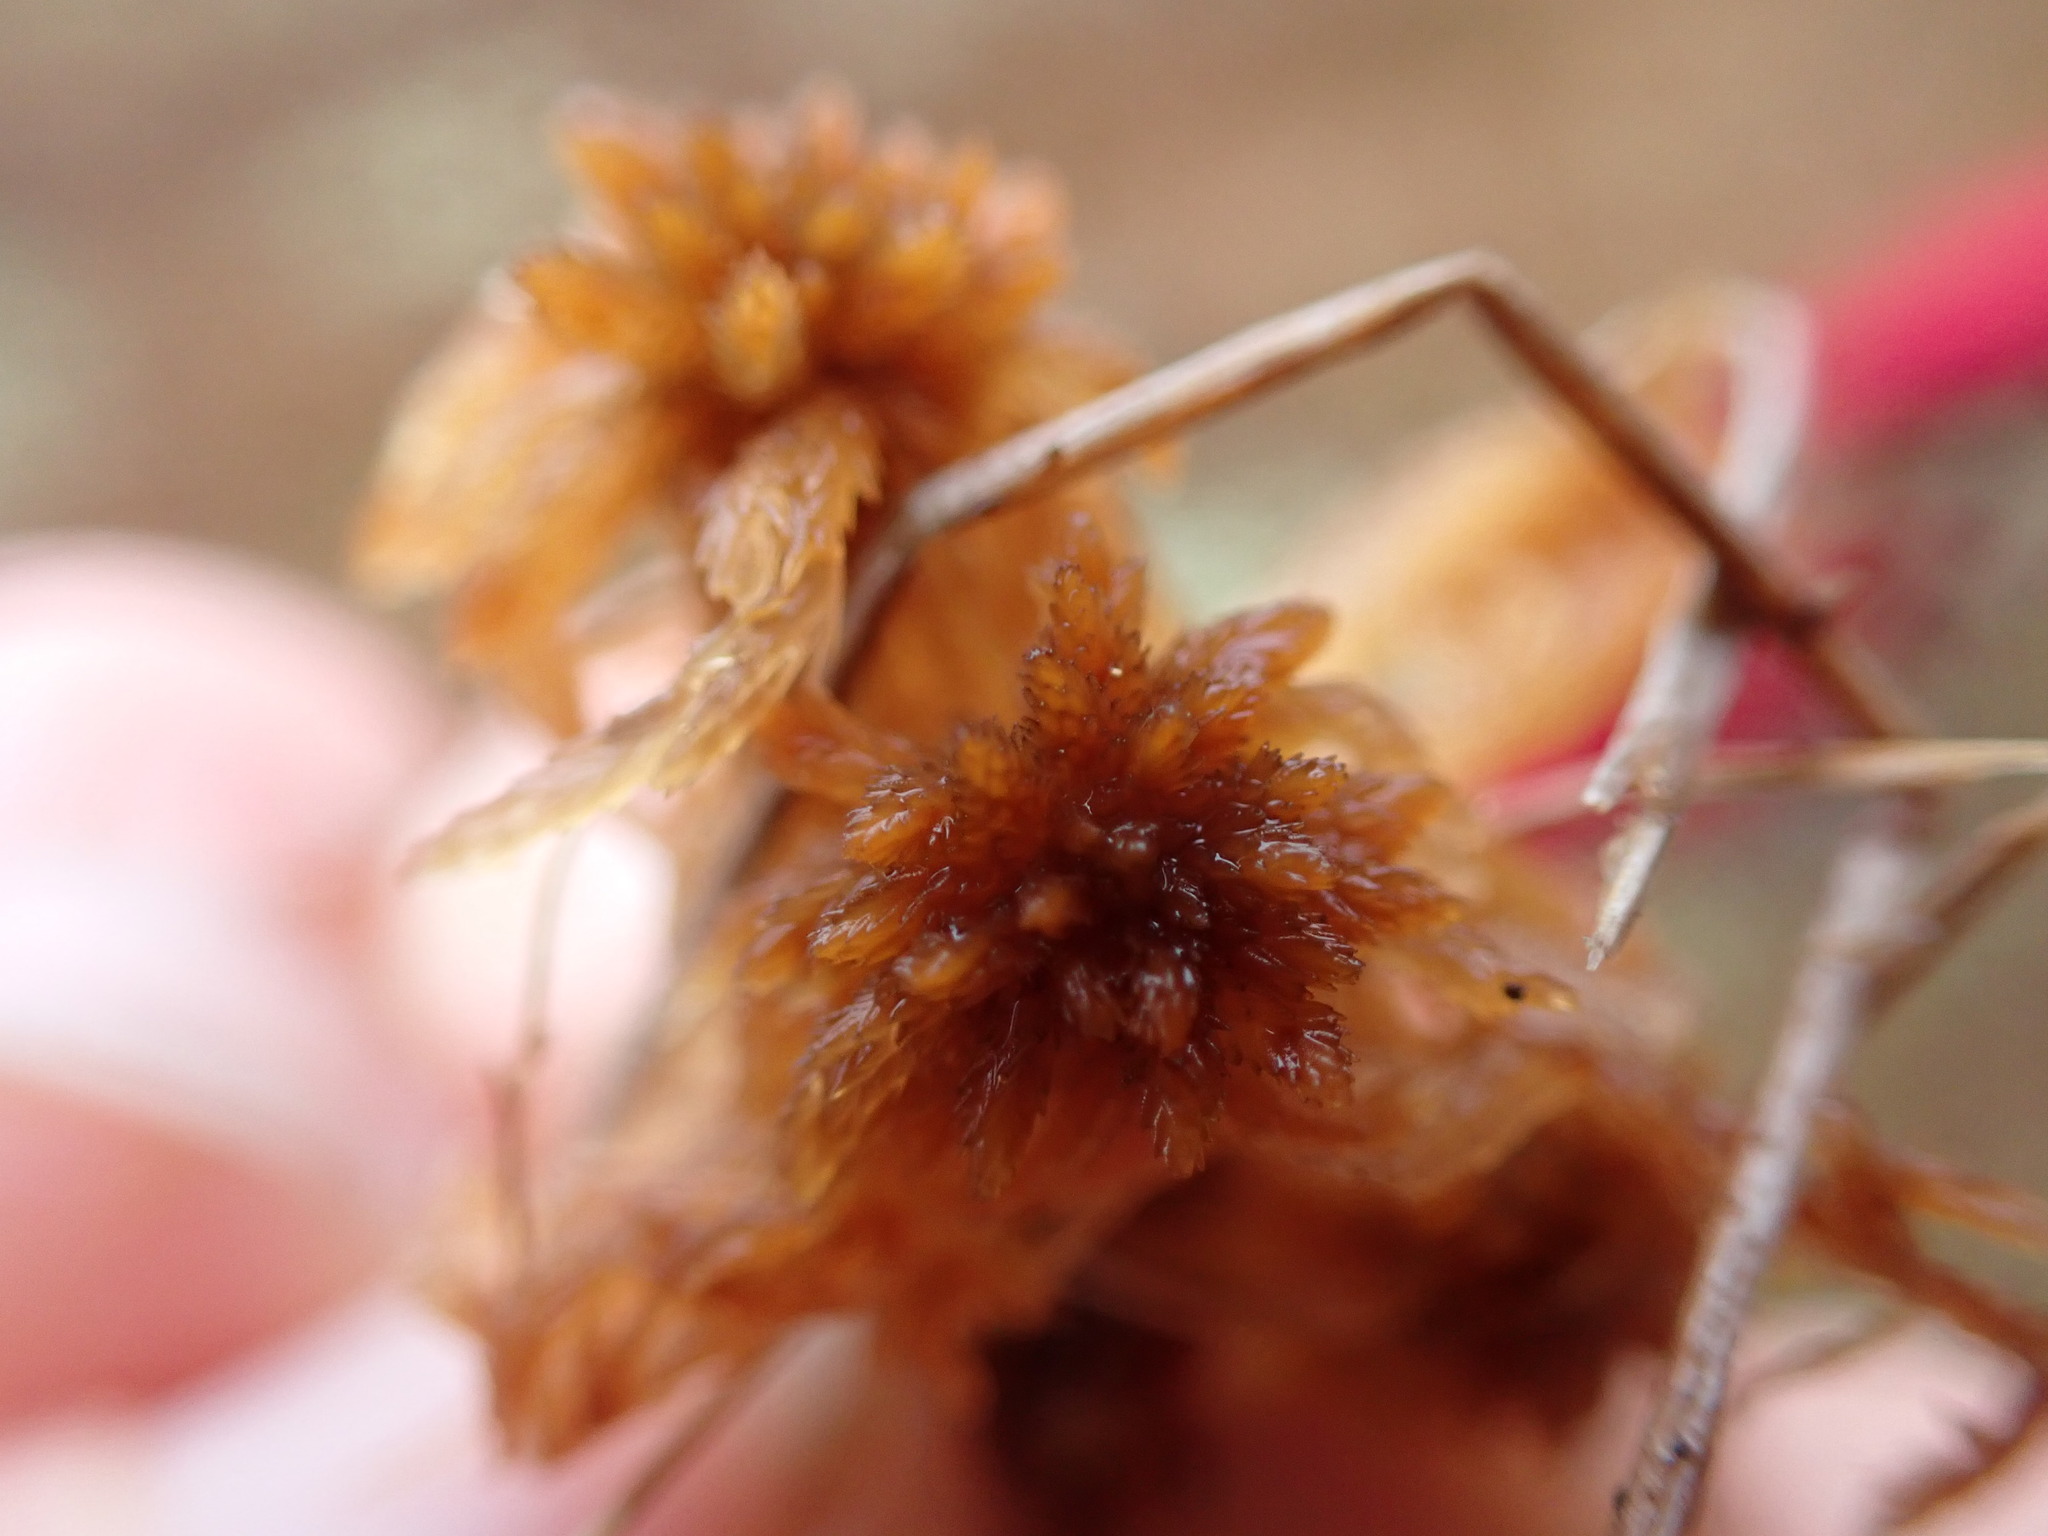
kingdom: Plantae
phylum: Bryophyta
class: Sphagnopsida
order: Sphagnales
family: Sphagnaceae
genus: Sphagnum
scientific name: Sphagnum fuscum
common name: Brown peat moss
